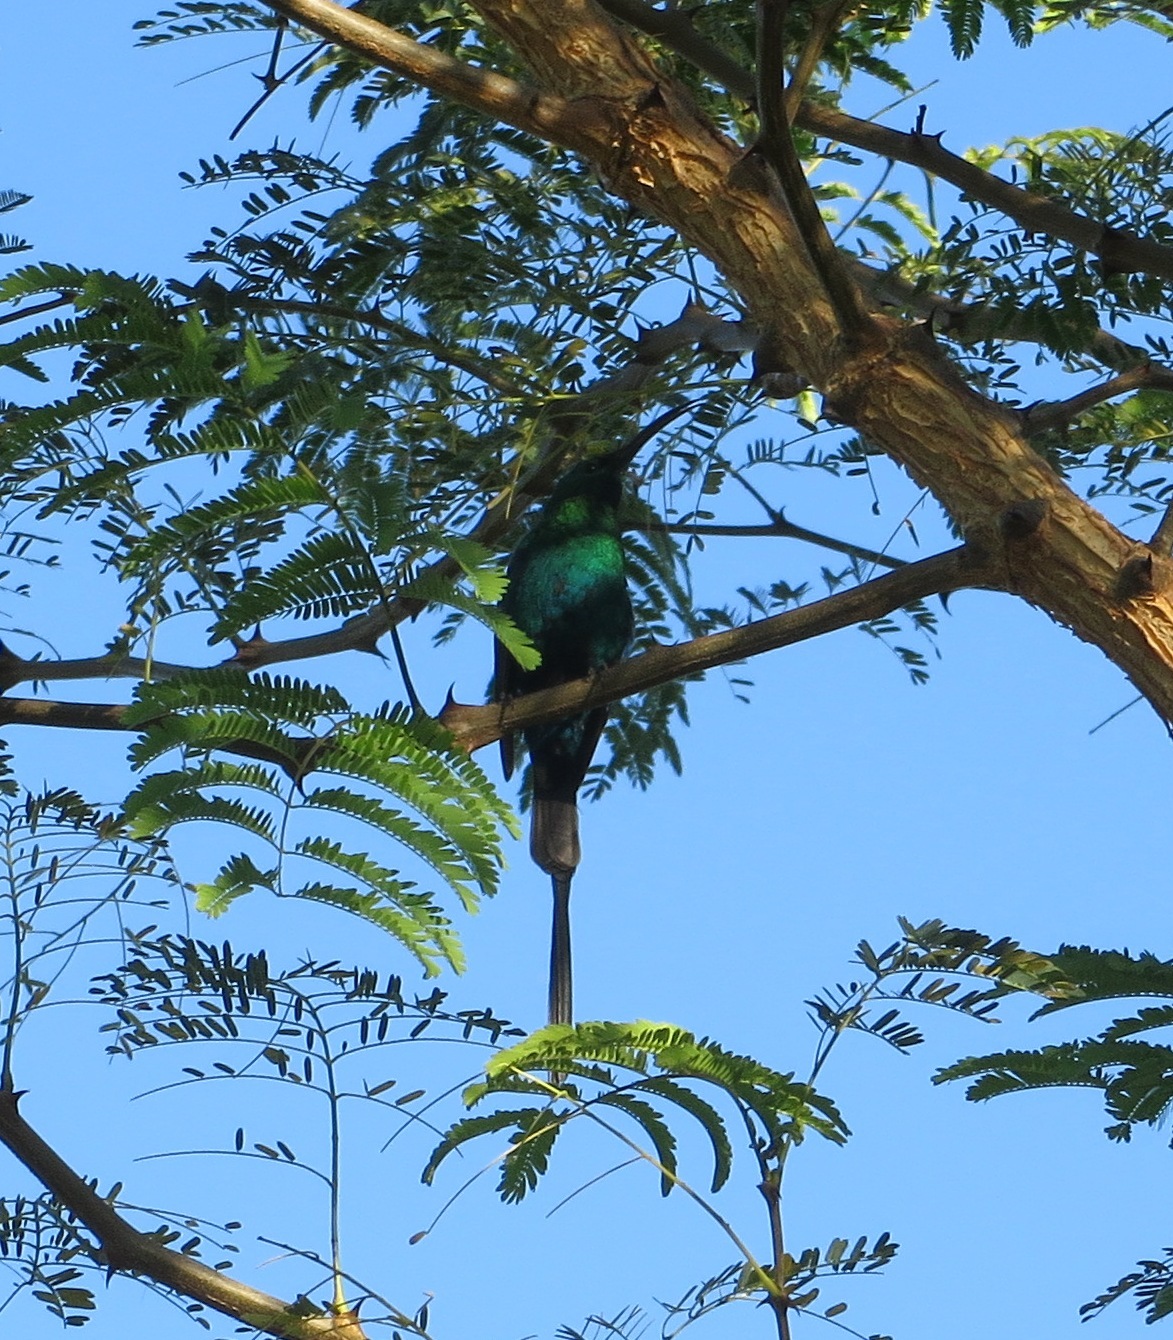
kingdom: Animalia
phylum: Chordata
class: Aves
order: Passeriformes
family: Nectariniidae
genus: Nectarinia
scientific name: Nectarinia famosa
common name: Malachite sunbird
